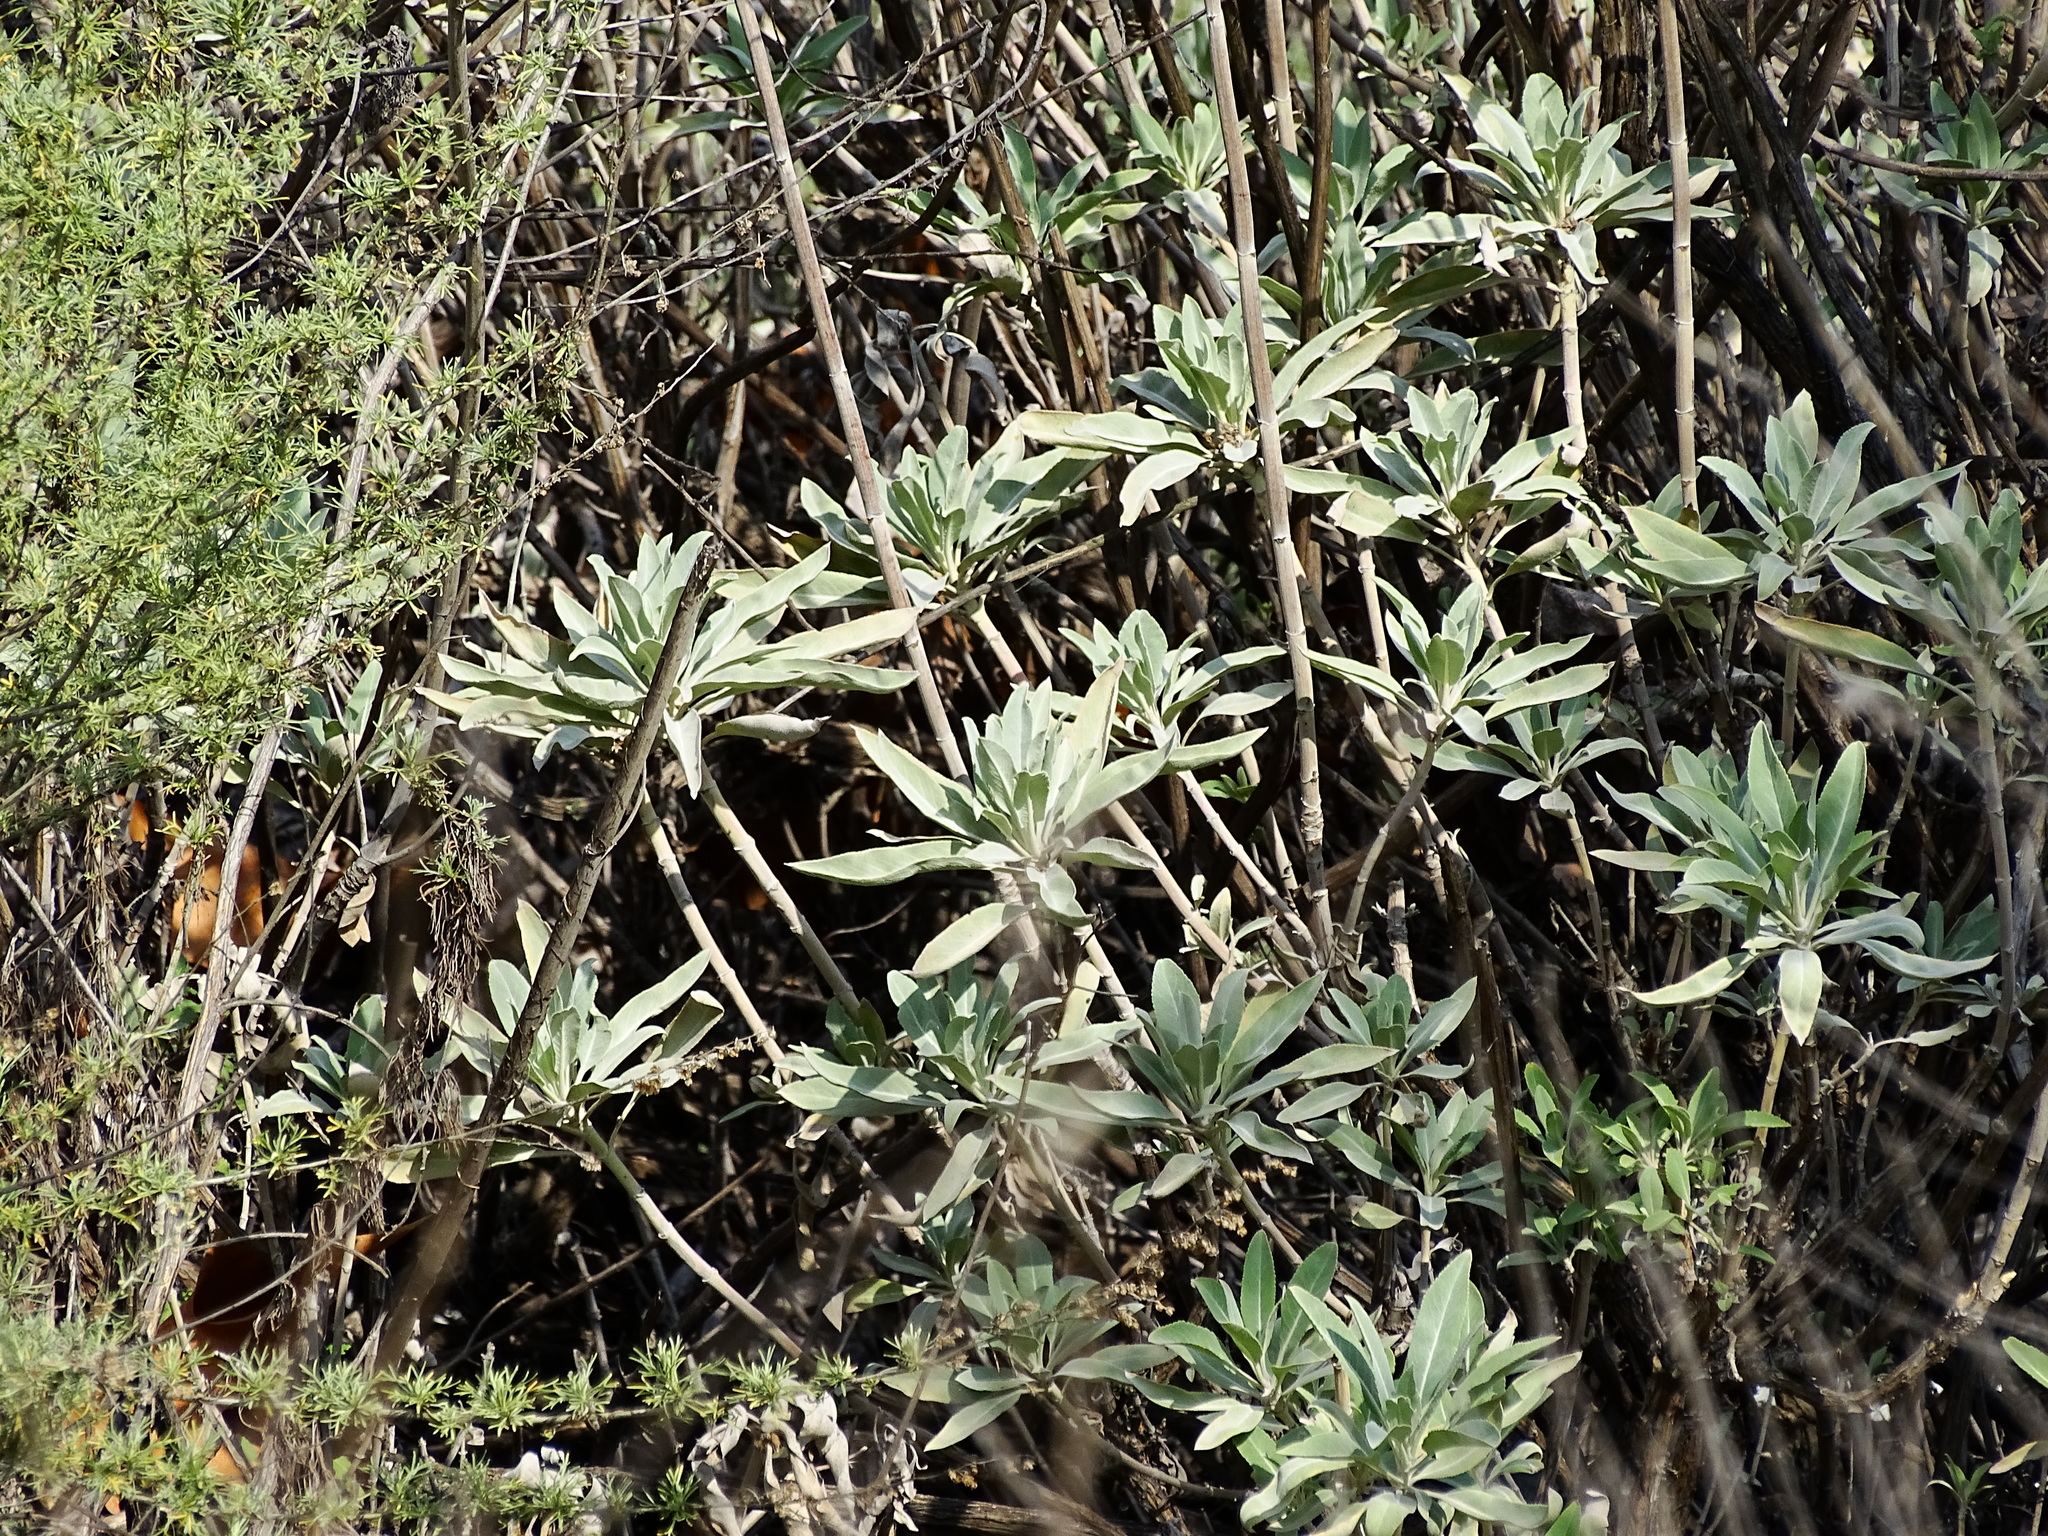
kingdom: Plantae
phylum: Tracheophyta
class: Magnoliopsida
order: Lamiales
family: Lamiaceae
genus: Salvia
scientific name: Salvia apiana
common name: White sage
